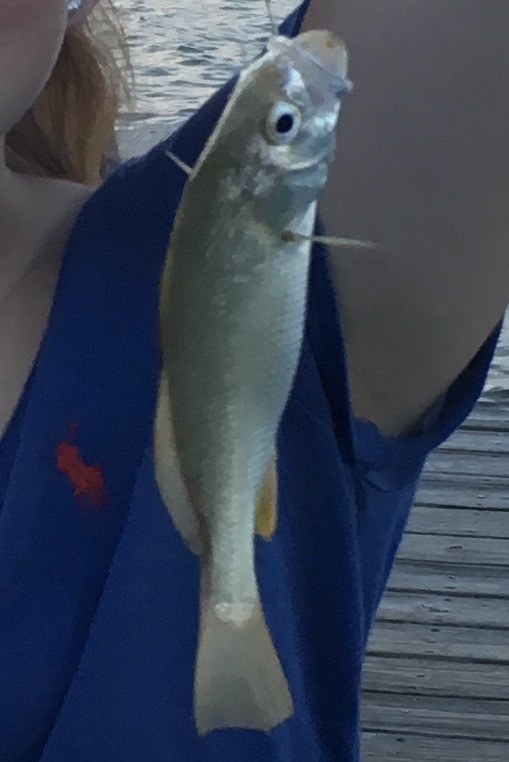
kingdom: Animalia
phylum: Chordata
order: Perciformes
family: Sciaenidae
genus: Bairdiella
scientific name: Bairdiella chrysoura
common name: Silver perch
